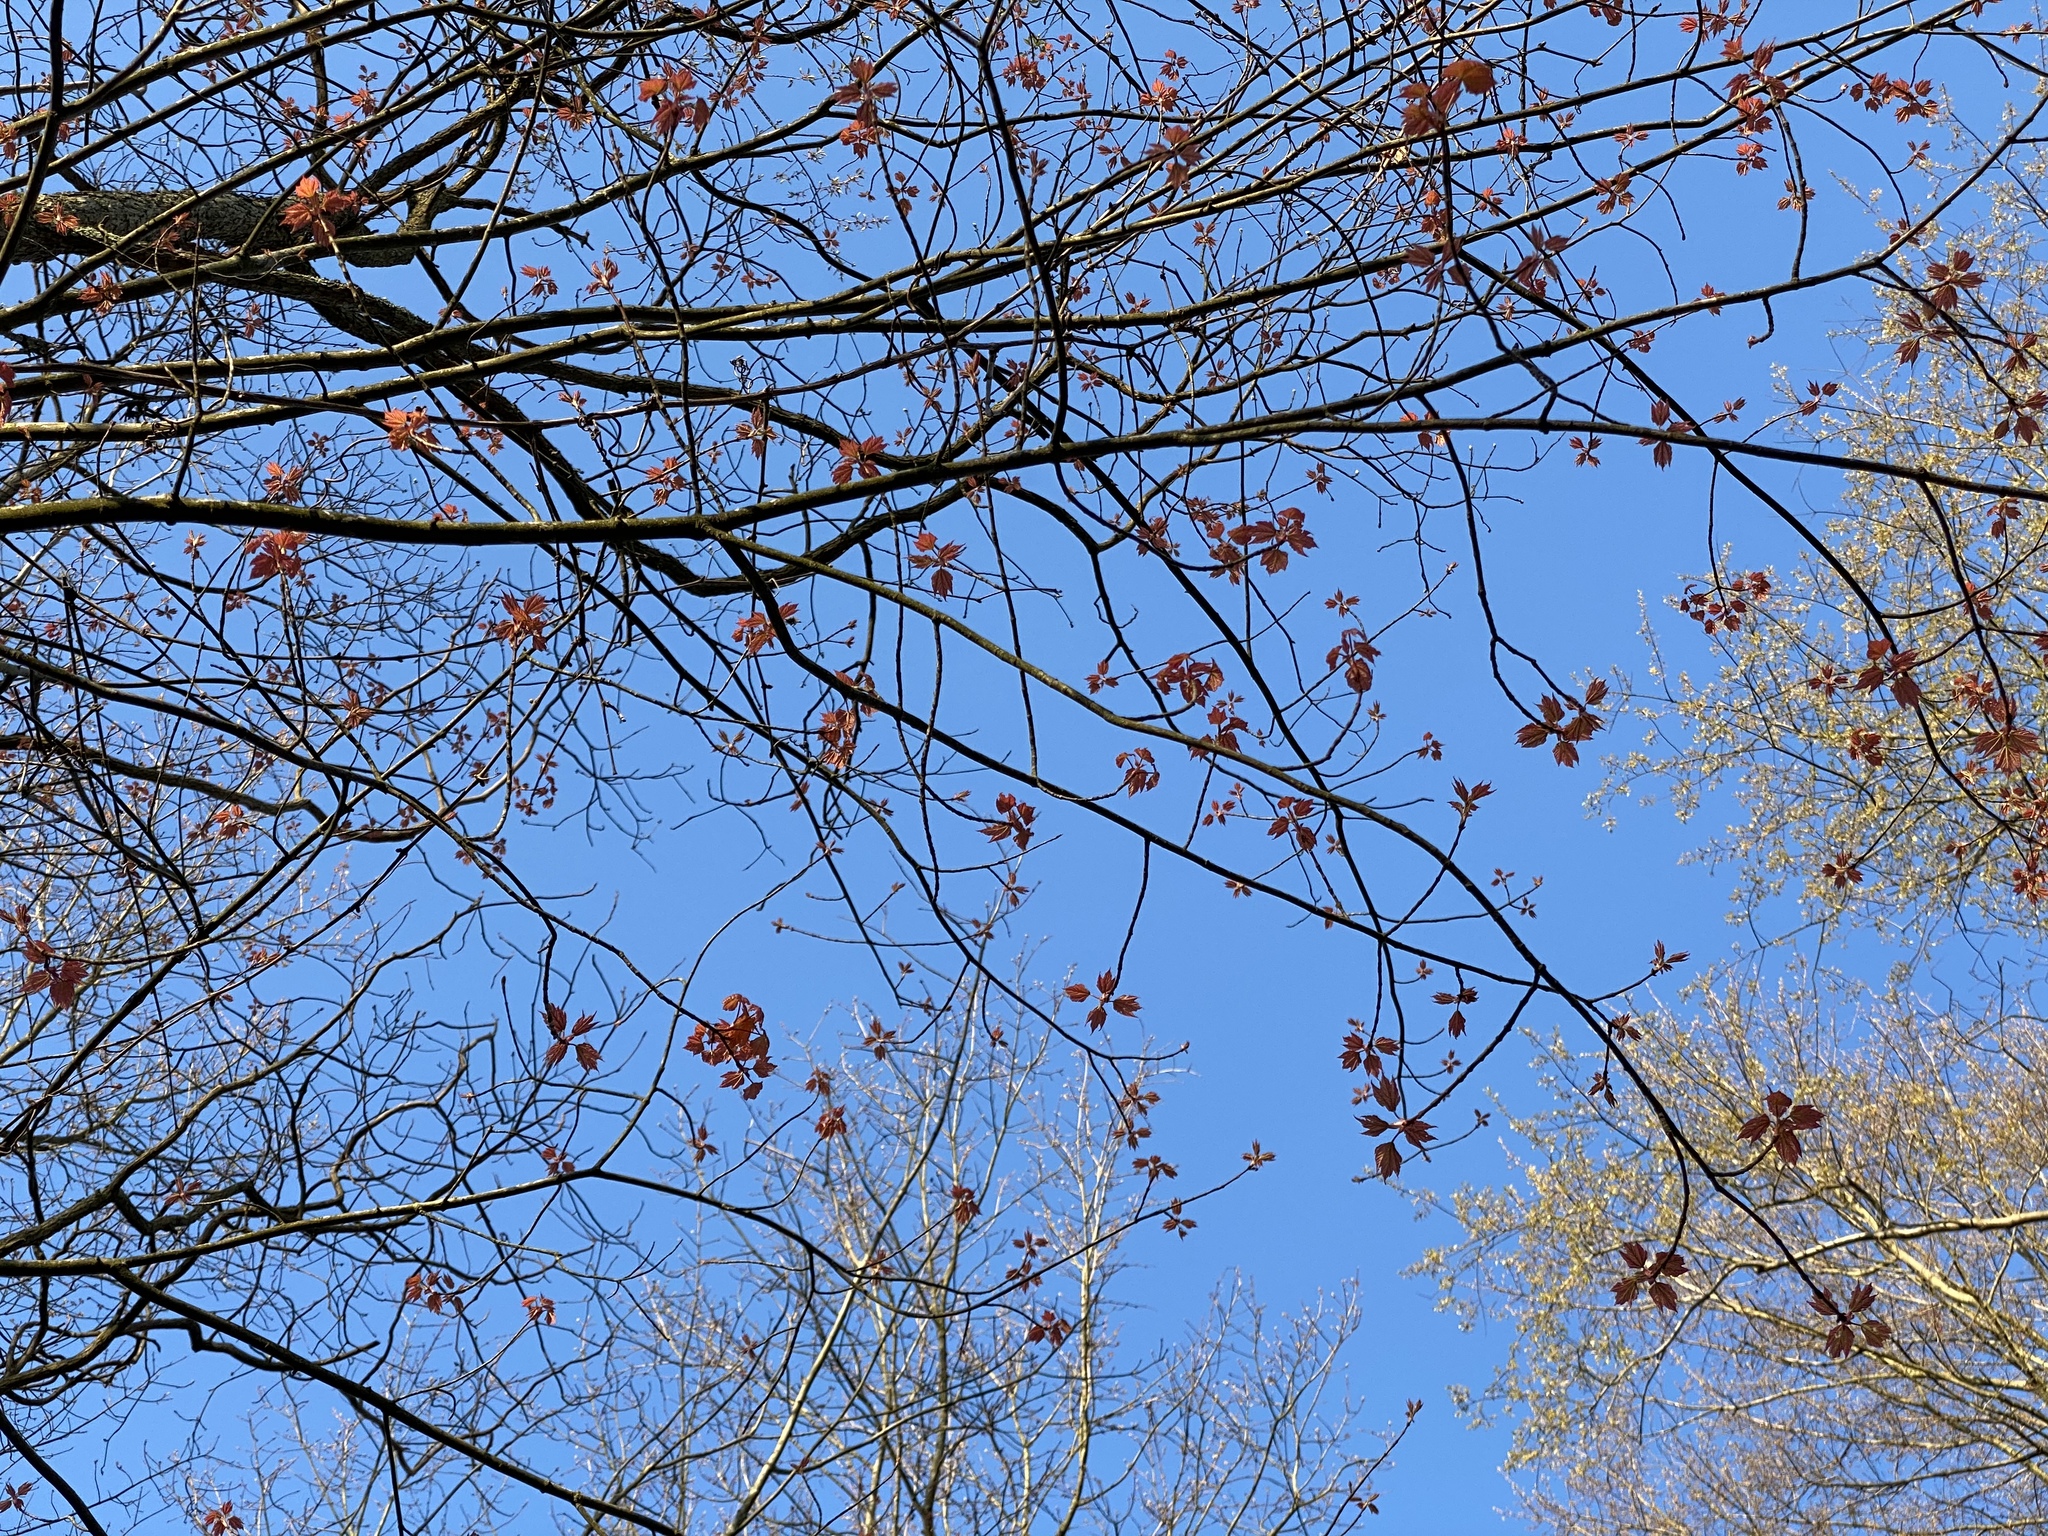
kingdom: Plantae
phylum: Tracheophyta
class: Magnoliopsida
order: Sapindales
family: Sapindaceae
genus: Acer
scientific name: Acer rubrum
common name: Red maple
